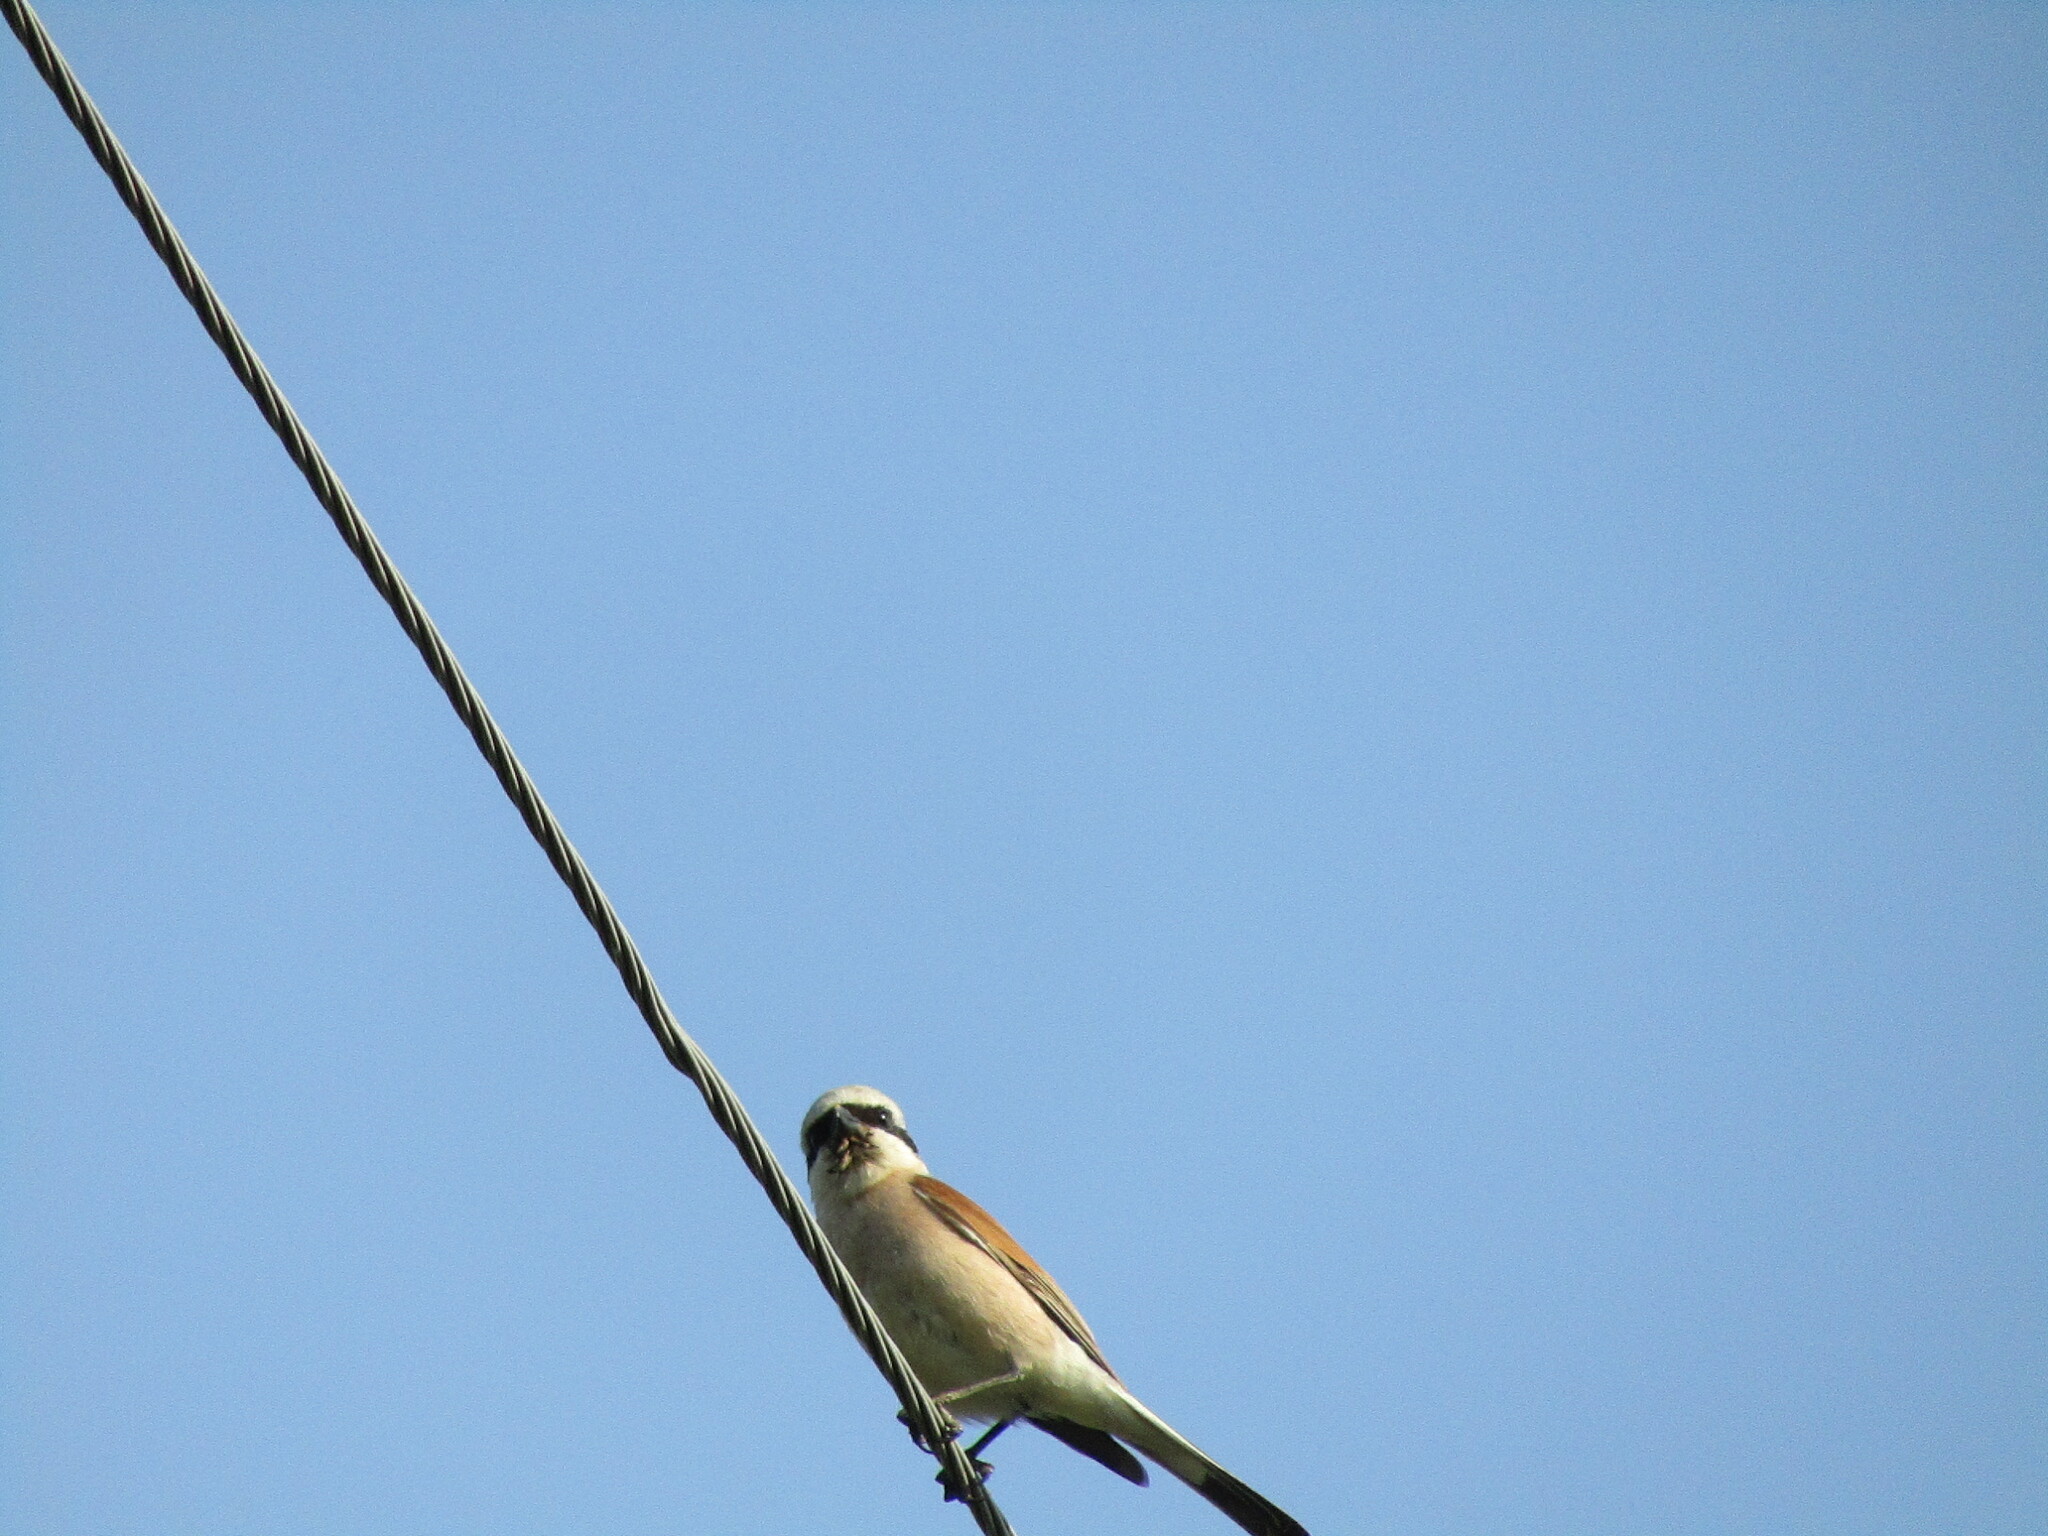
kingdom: Animalia
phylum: Chordata
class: Aves
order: Passeriformes
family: Laniidae
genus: Lanius
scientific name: Lanius collurio
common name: Red-backed shrike
